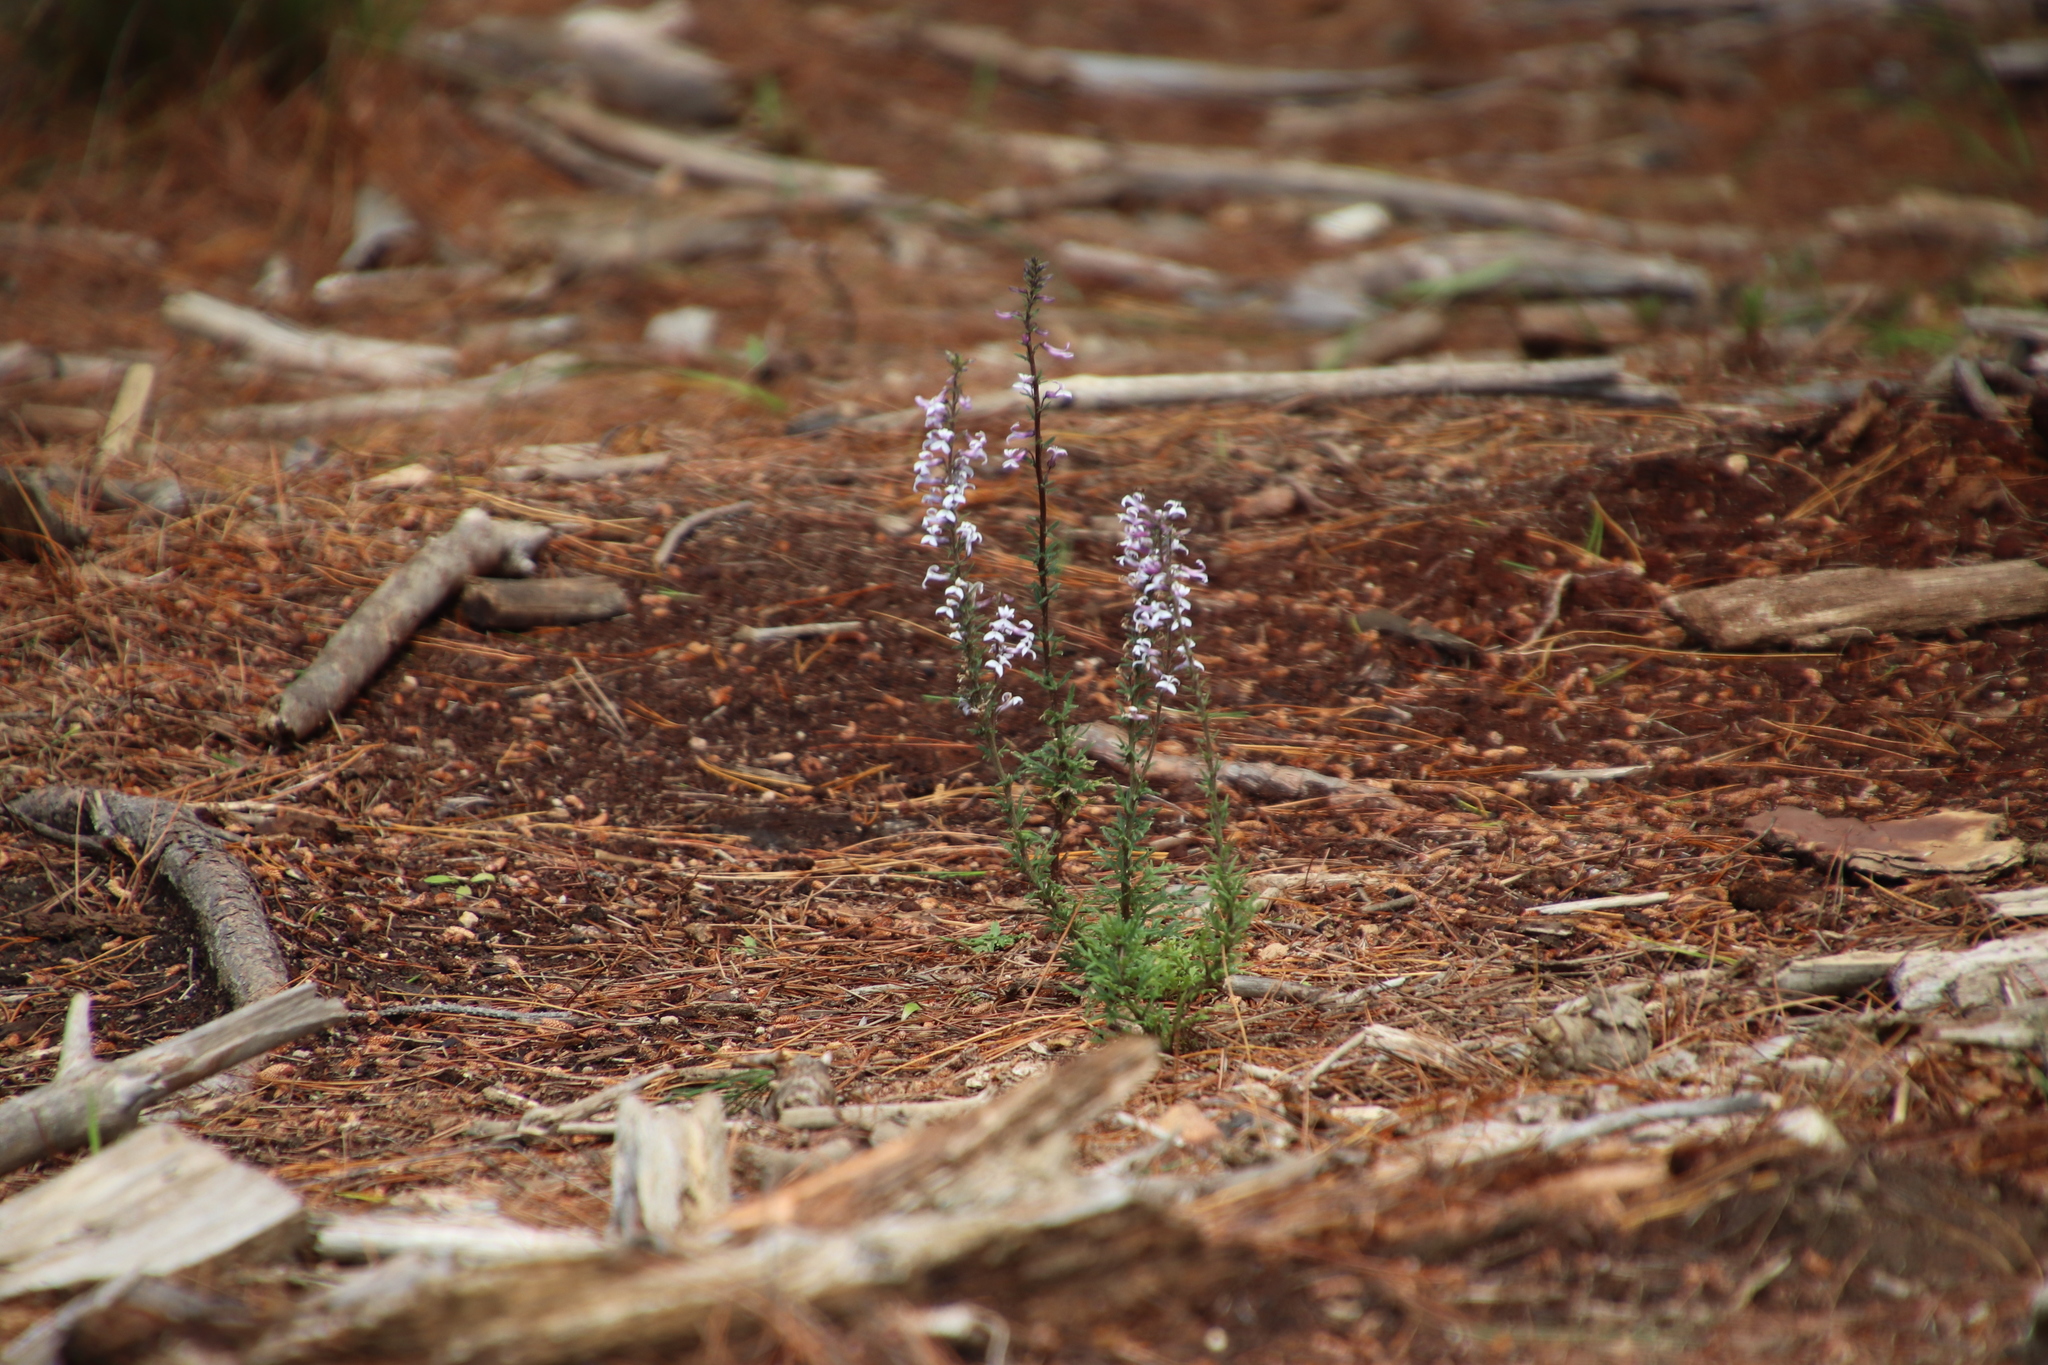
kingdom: Plantae
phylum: Tracheophyta
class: Magnoliopsida
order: Asterales
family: Campanulaceae
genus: Cyphia
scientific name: Cyphia bulbosa
